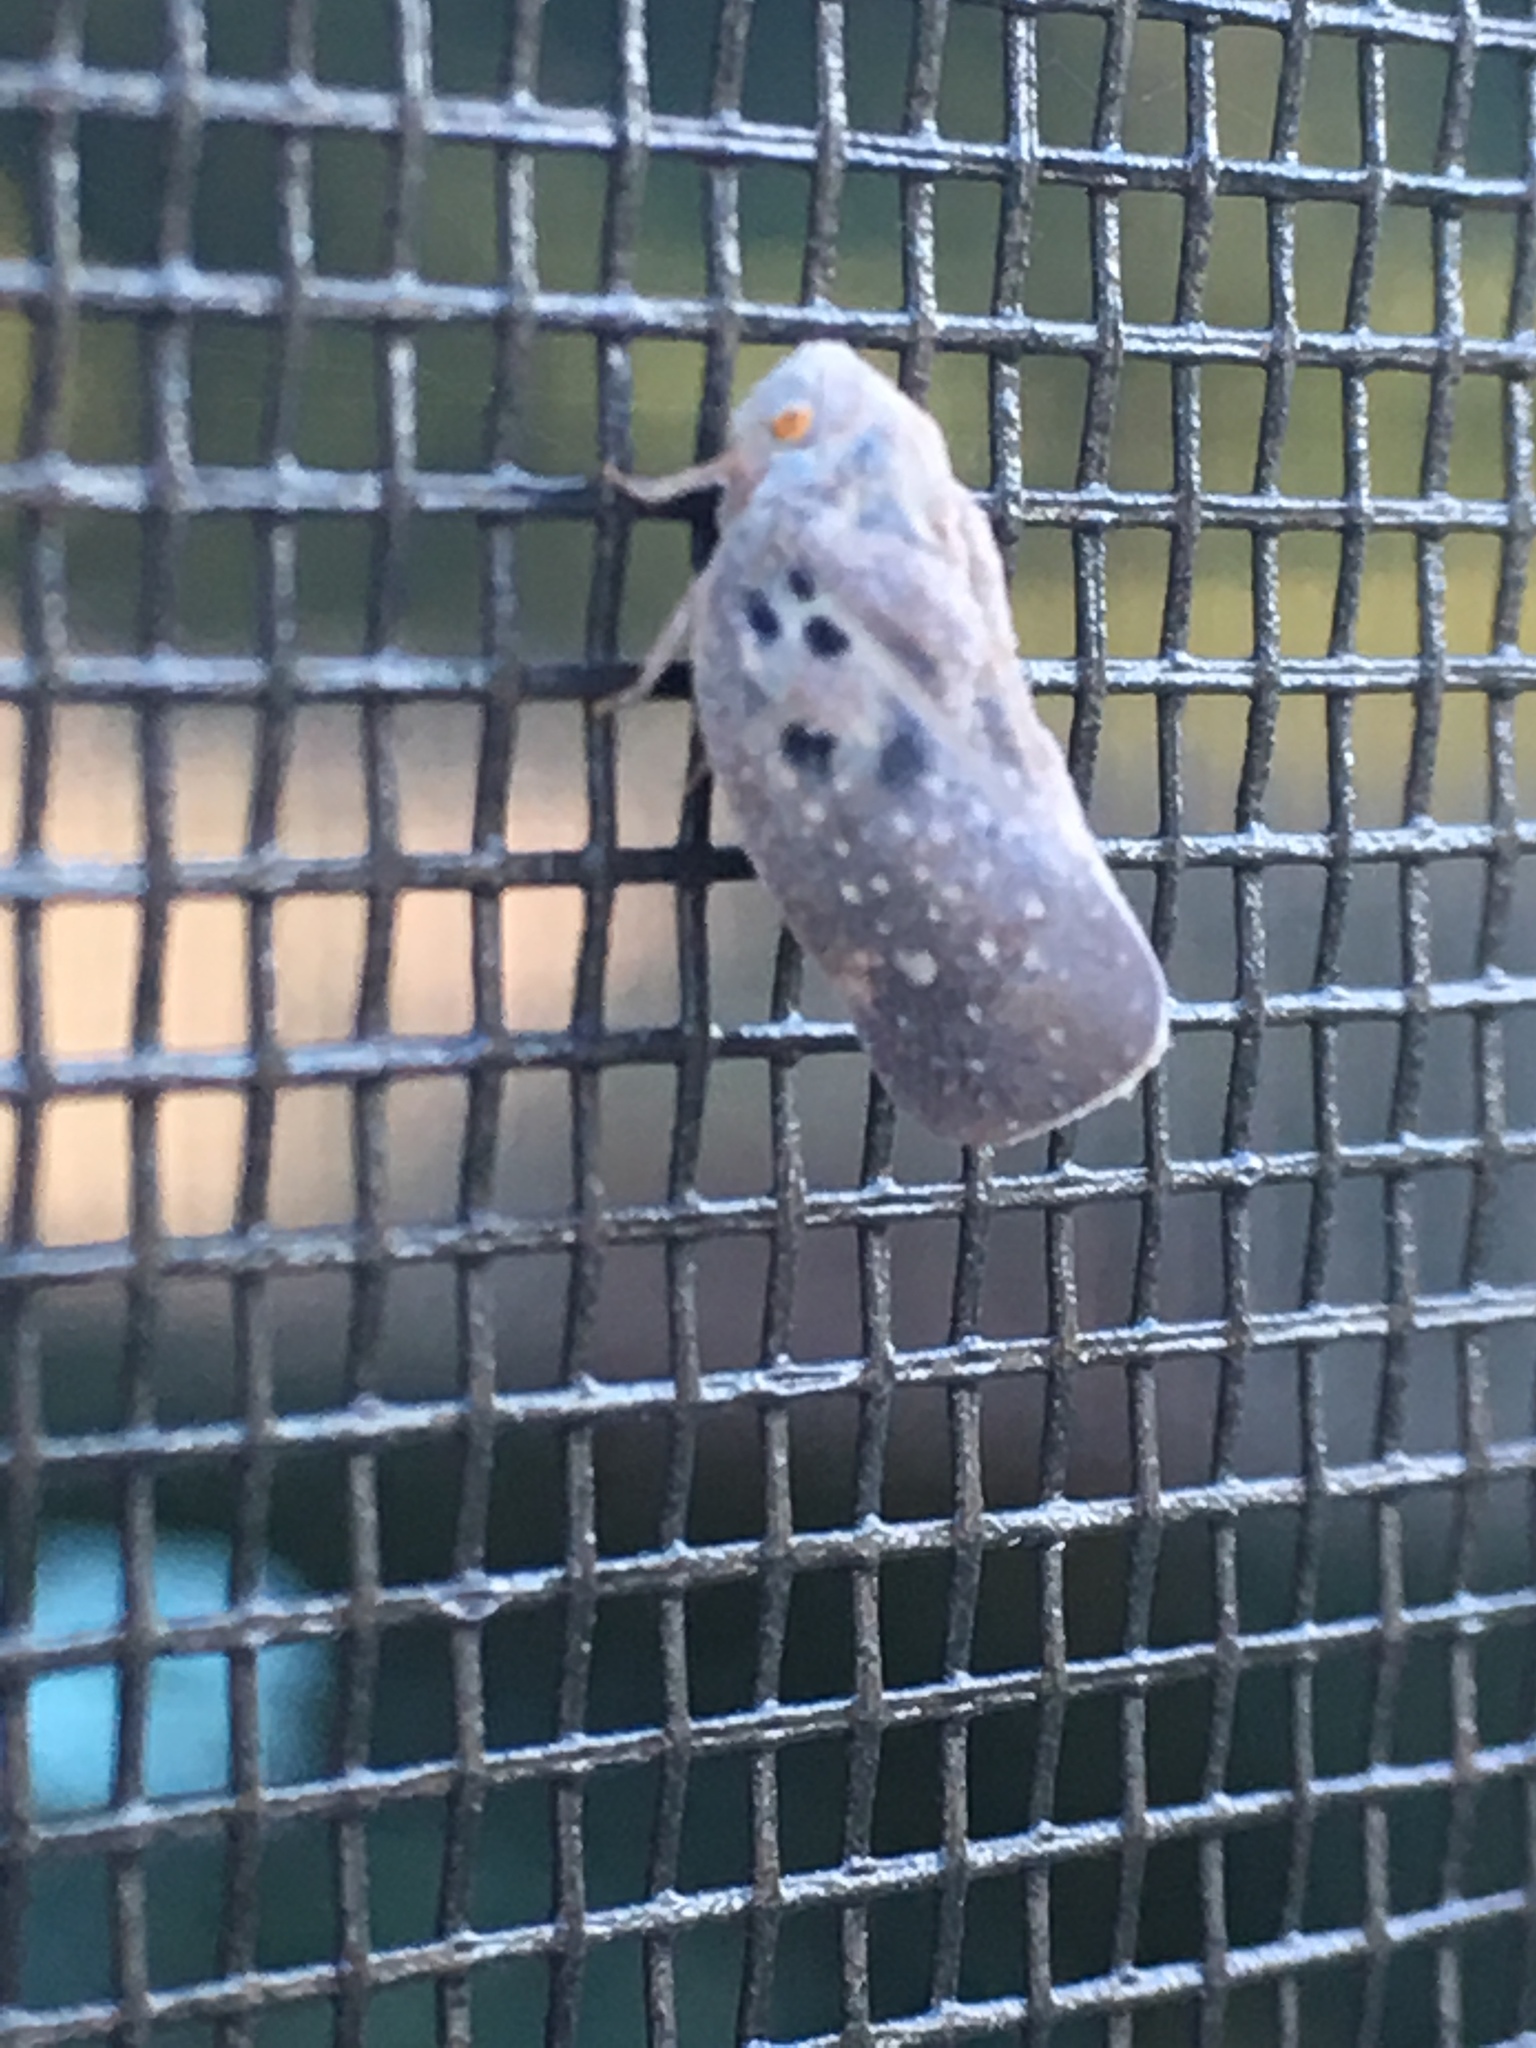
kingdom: Animalia
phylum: Arthropoda
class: Insecta
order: Hemiptera
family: Flatidae
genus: Metcalfa
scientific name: Metcalfa pruinosa
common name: Citrus flatid planthopper
